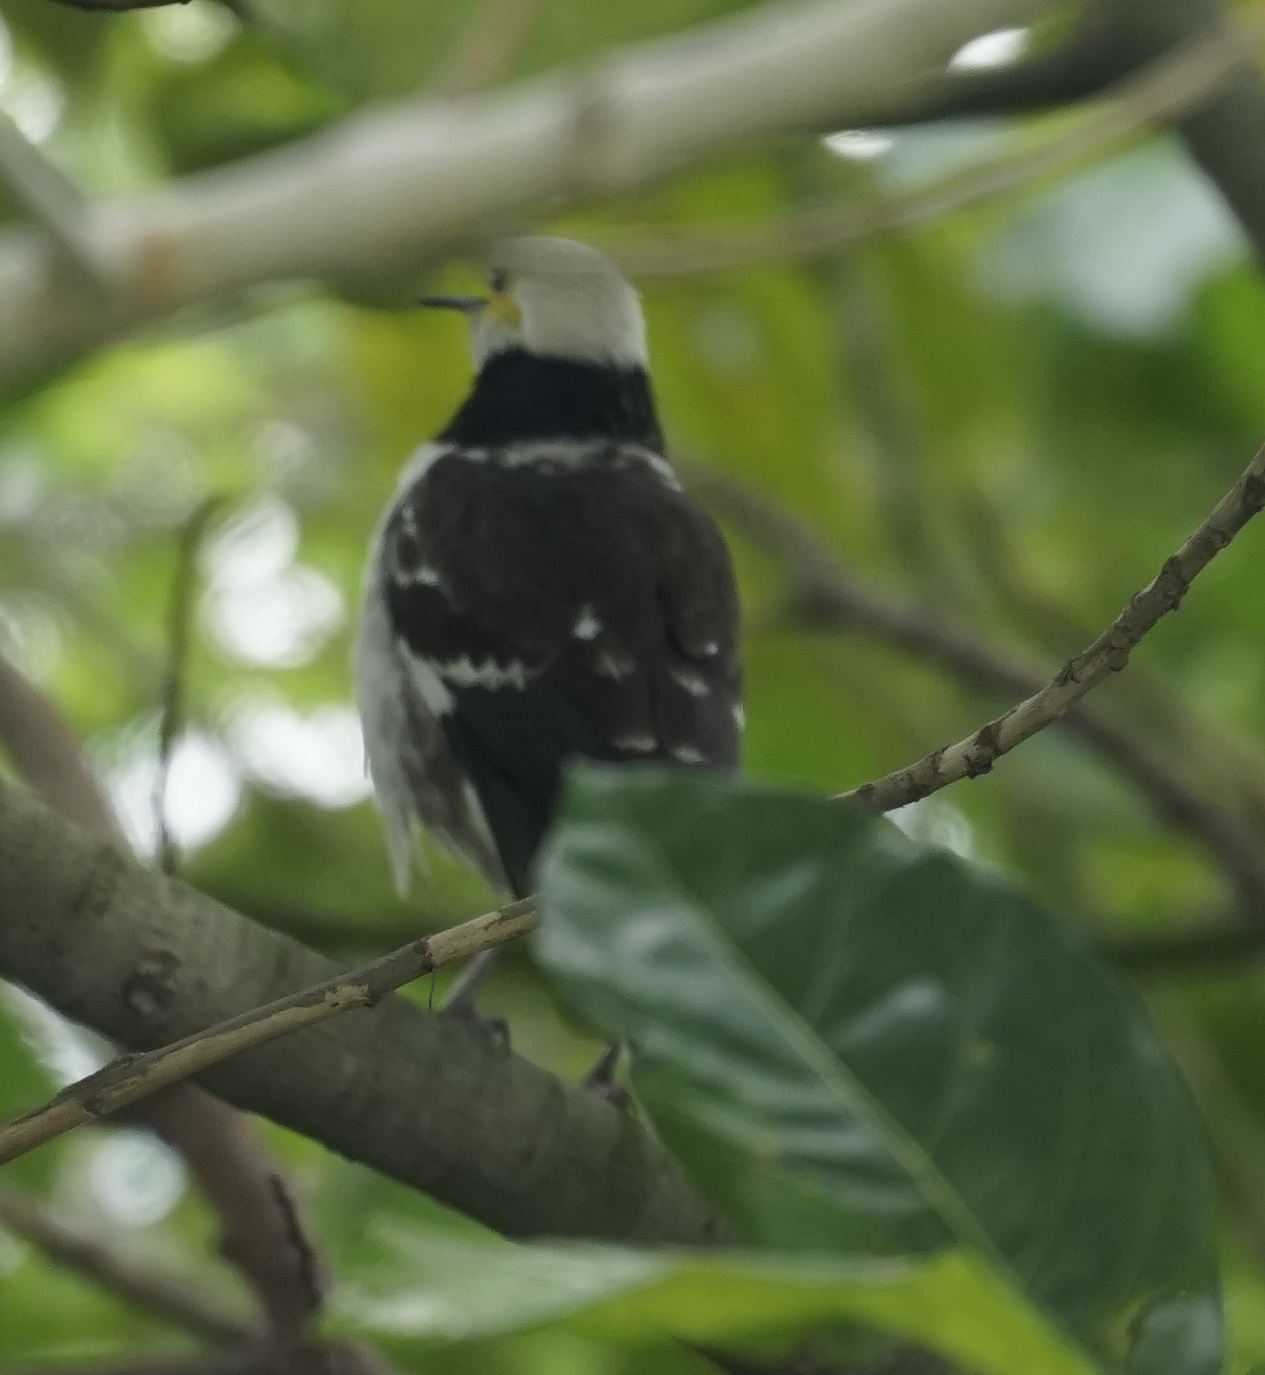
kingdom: Animalia
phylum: Chordata
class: Aves
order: Passeriformes
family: Sturnidae
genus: Gracupica
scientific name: Gracupica nigricollis
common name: Black-collared starling
